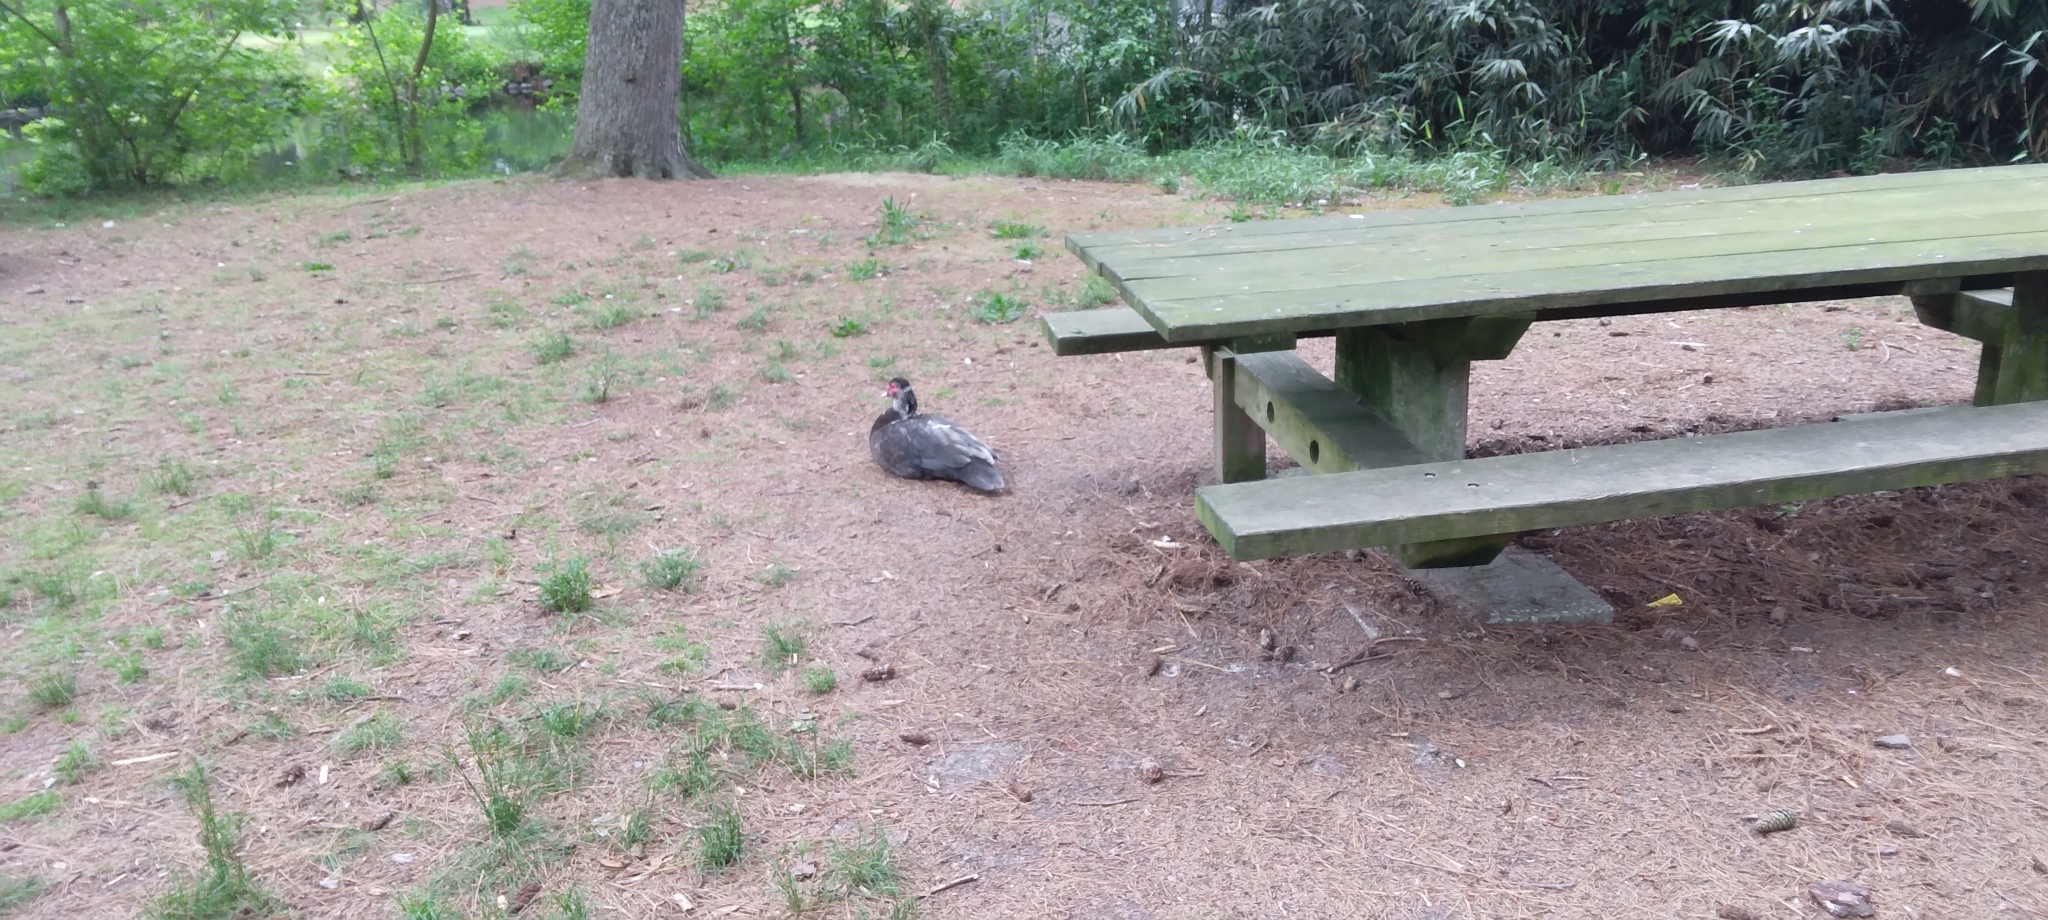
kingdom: Animalia
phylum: Chordata
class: Aves
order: Anseriformes
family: Anatidae
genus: Cairina
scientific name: Cairina moschata
